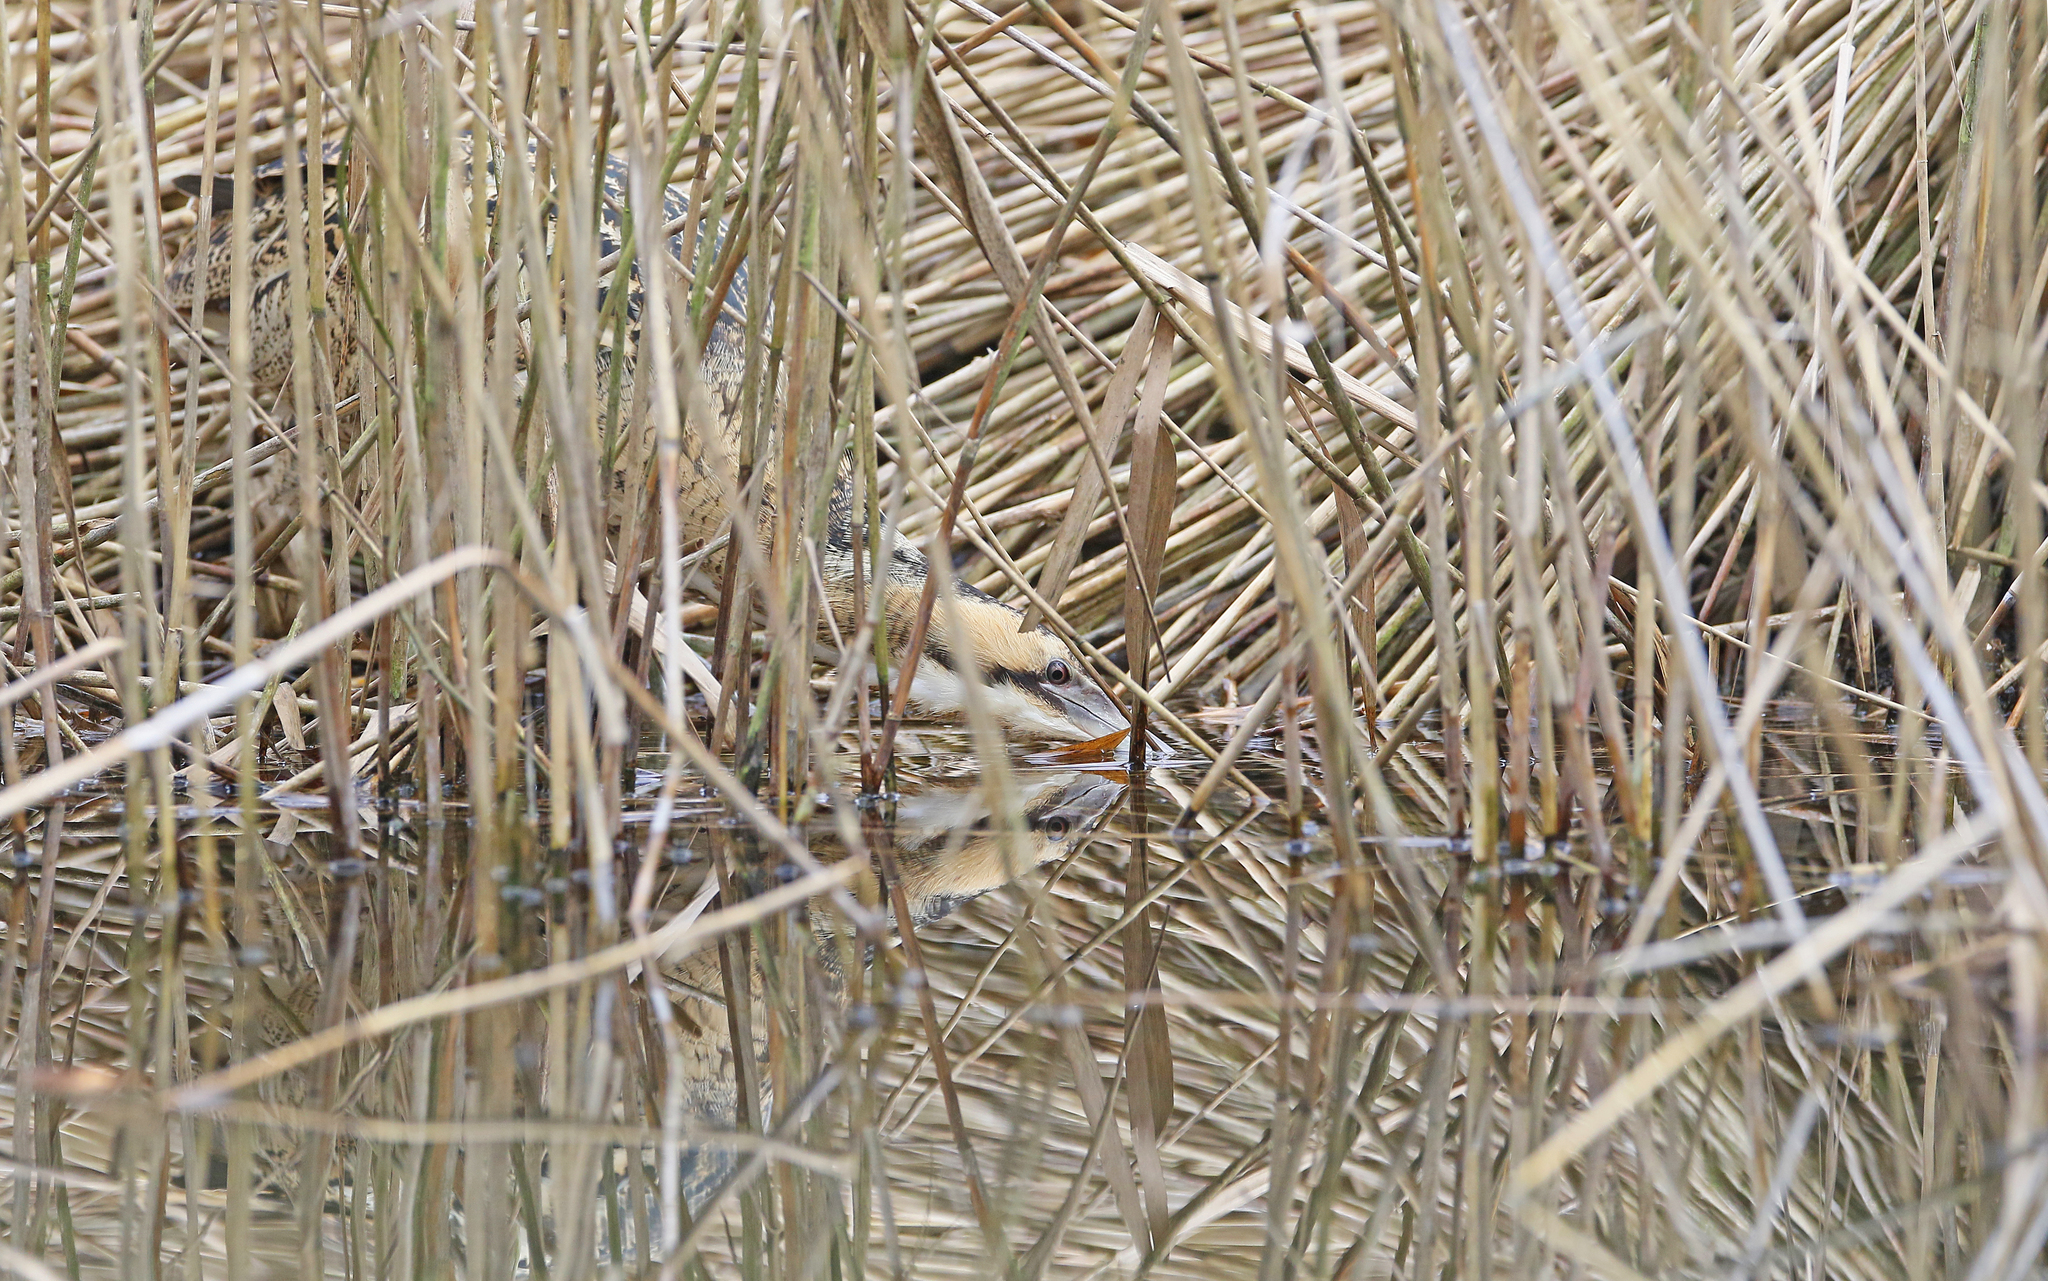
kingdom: Animalia
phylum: Chordata
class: Aves
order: Pelecaniformes
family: Ardeidae
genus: Botaurus
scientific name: Botaurus stellaris
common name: Eurasian bittern
